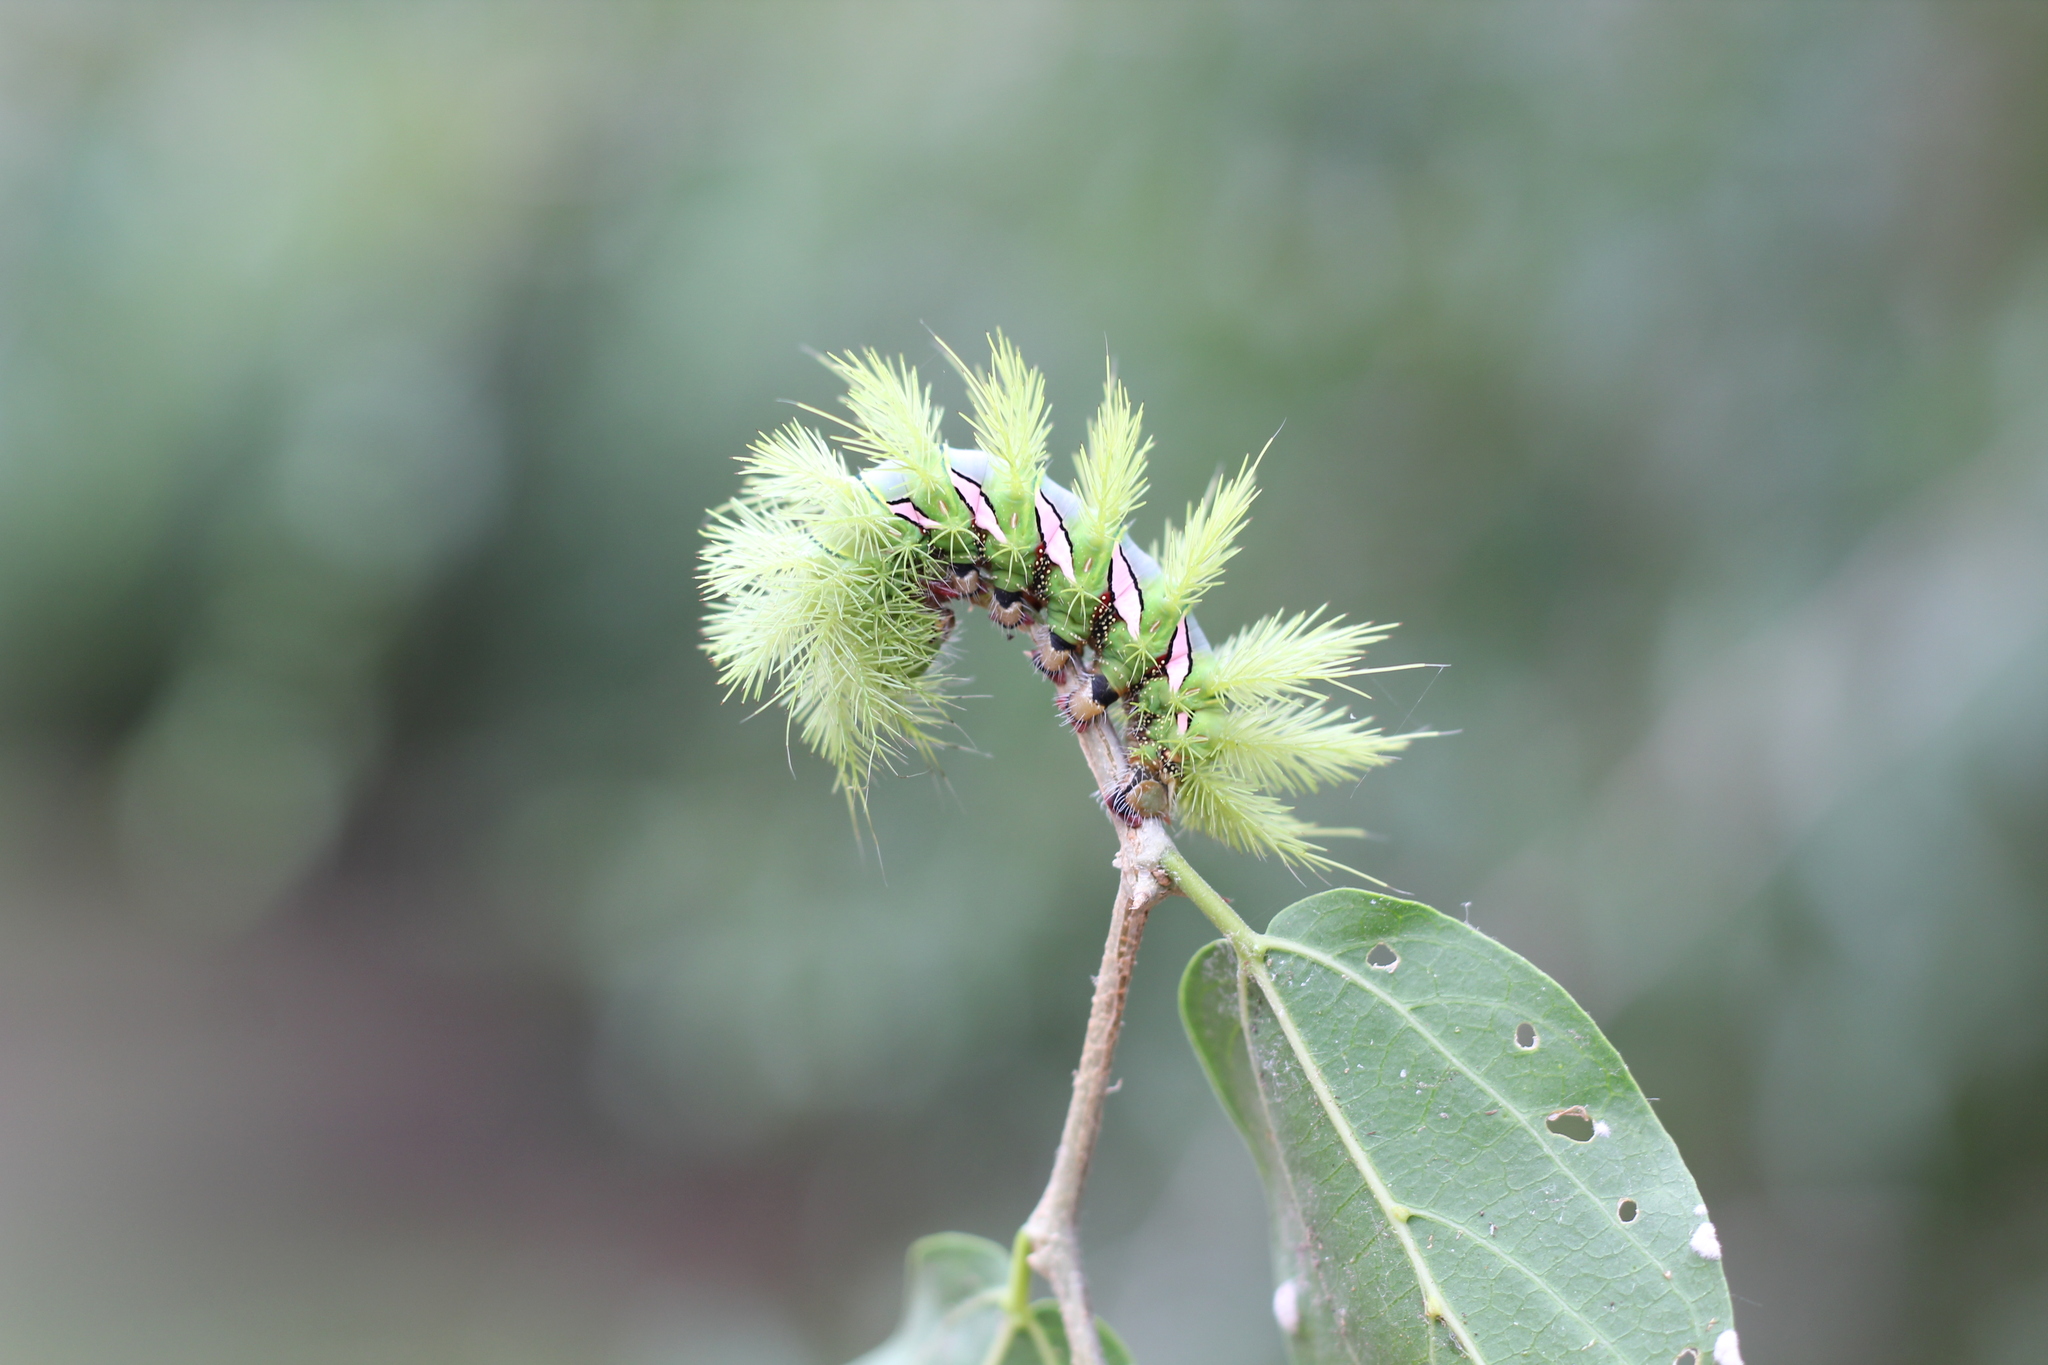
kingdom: Animalia
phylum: Arthropoda
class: Insecta
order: Lepidoptera
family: Saturniidae
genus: Automeris
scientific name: Automeris naranja
